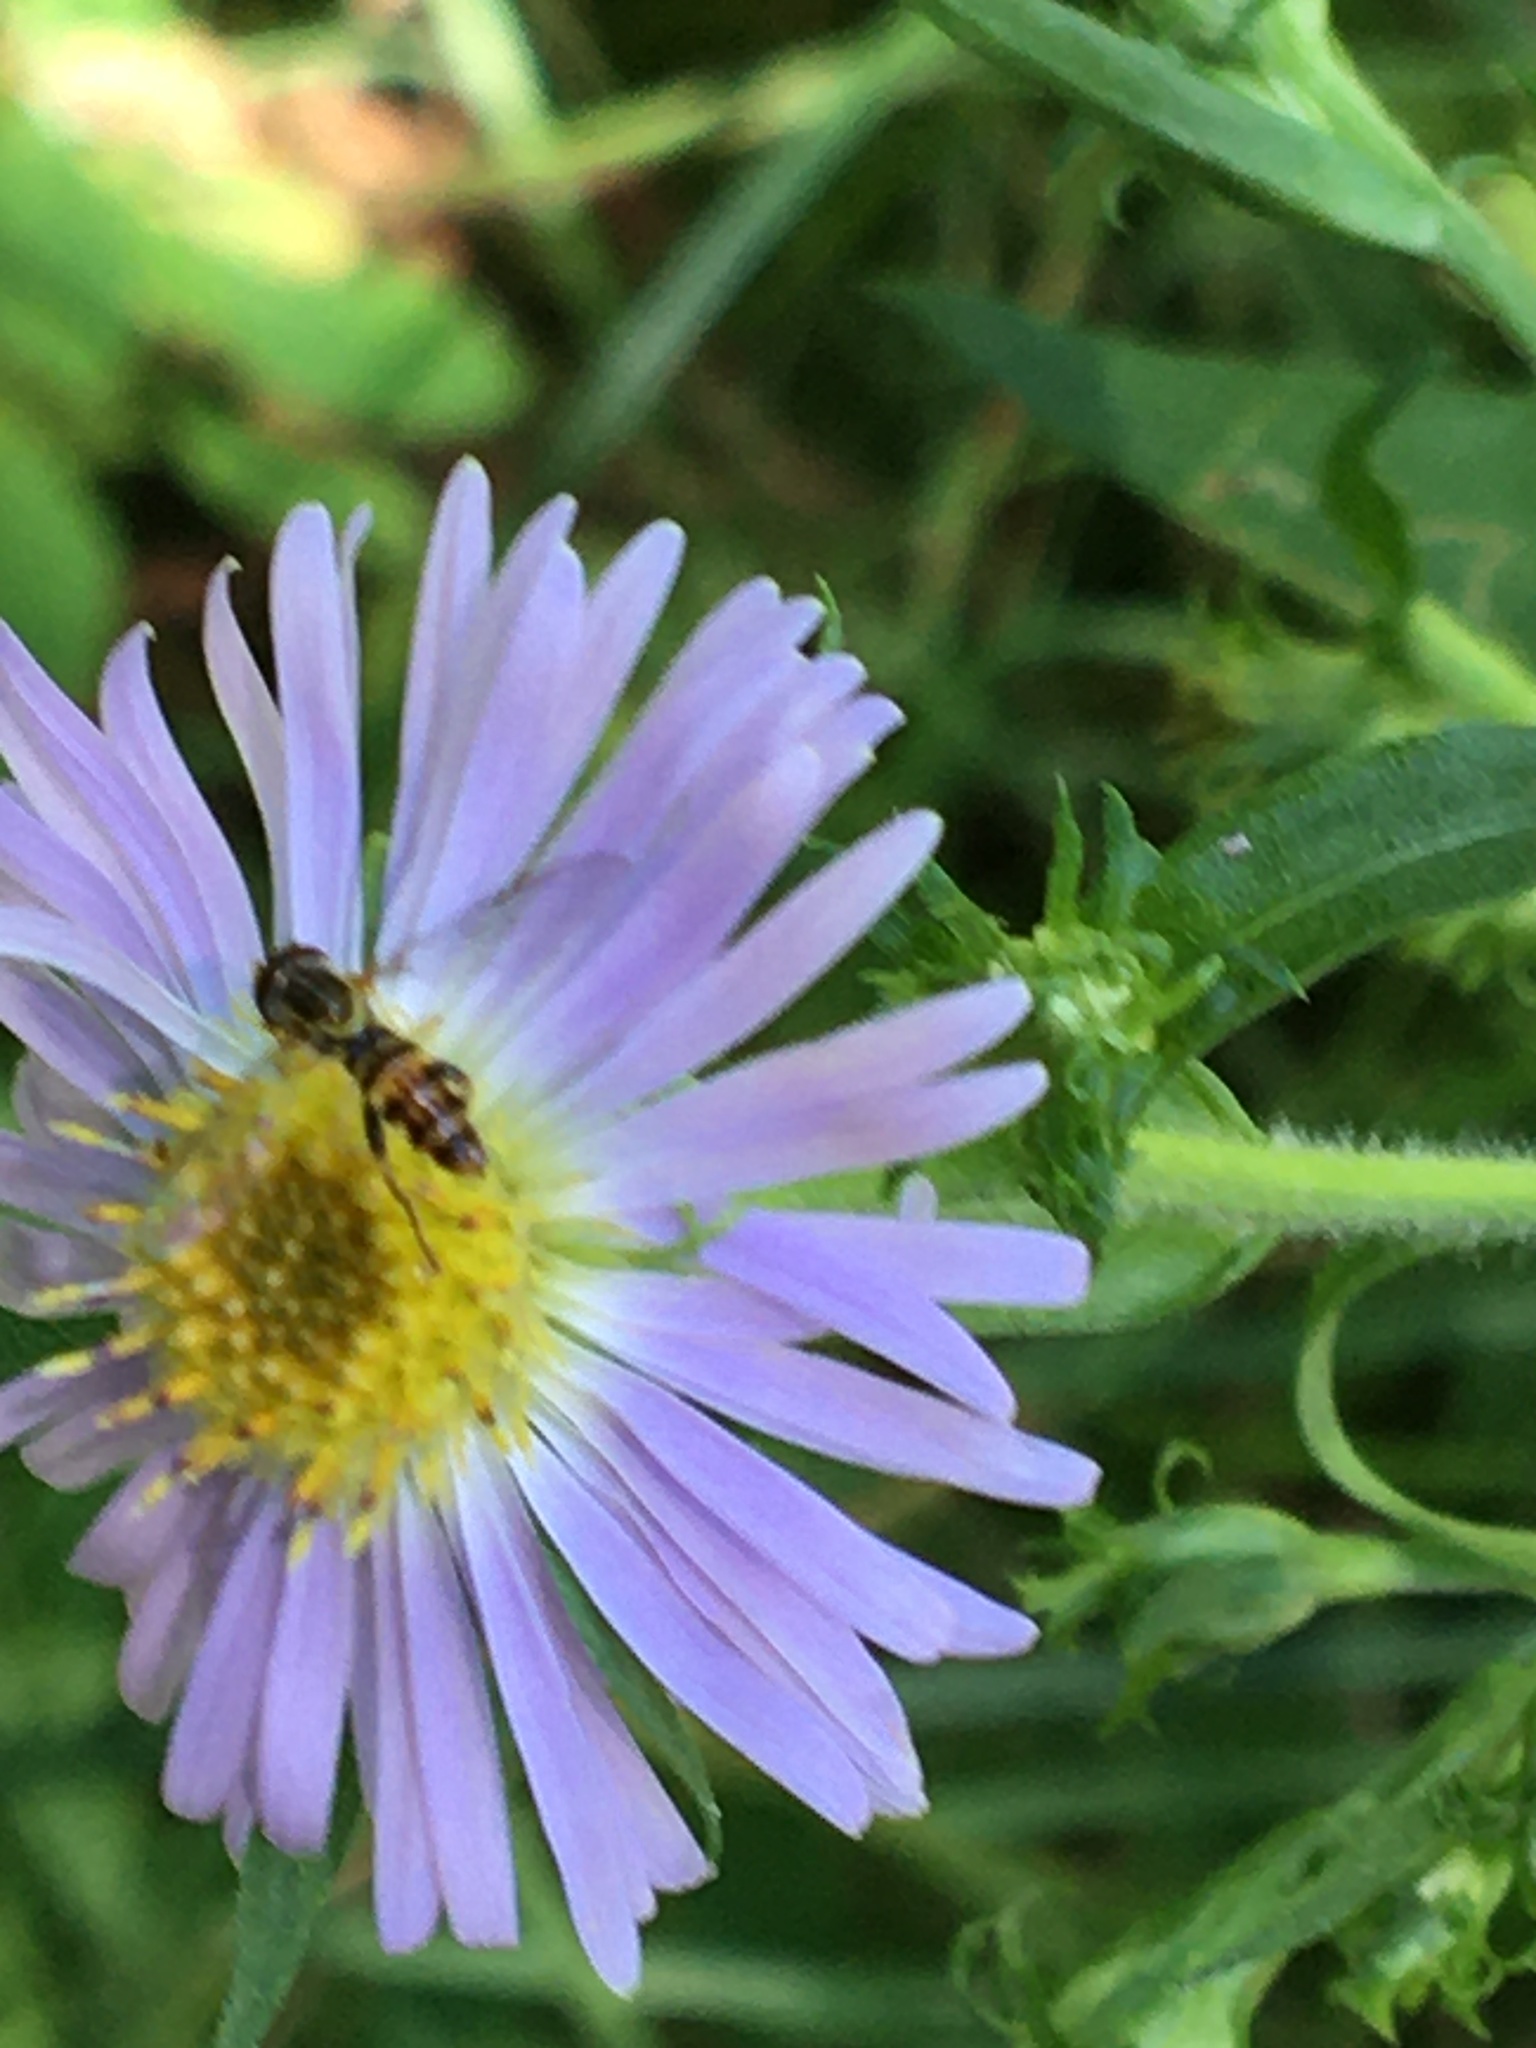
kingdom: Animalia
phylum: Arthropoda
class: Insecta
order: Diptera
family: Syrphidae
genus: Toxomerus
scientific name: Toxomerus geminatus
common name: Eastern calligrapher
